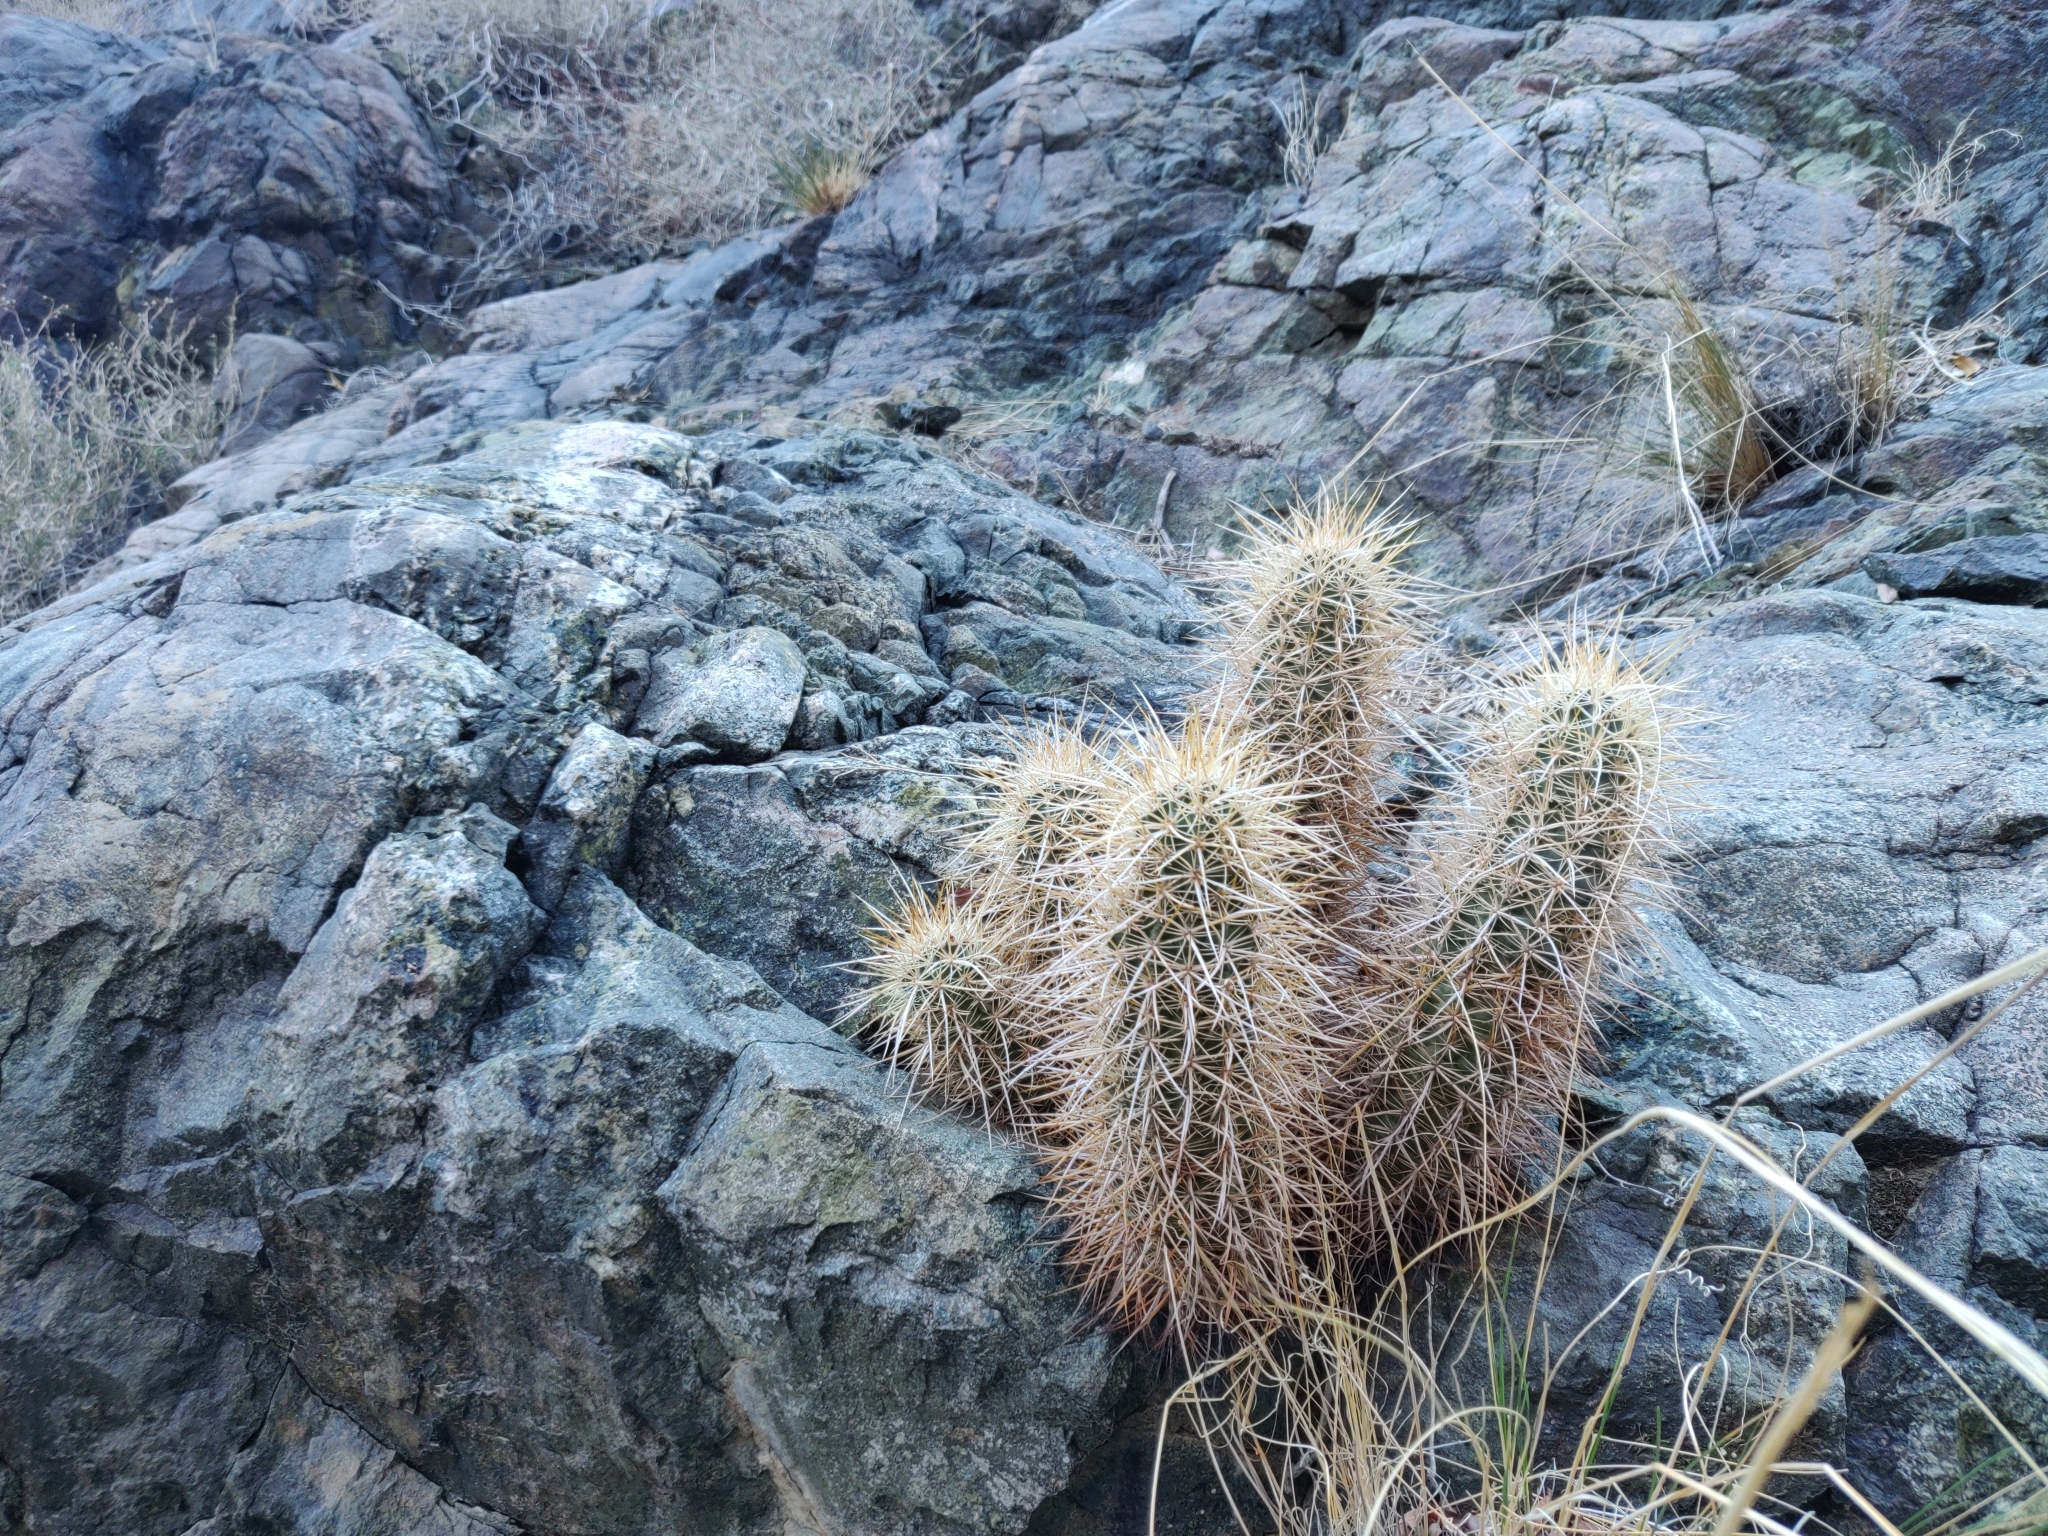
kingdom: Plantae
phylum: Tracheophyta
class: Magnoliopsida
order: Caryophyllales
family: Cactaceae
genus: Echinocereus
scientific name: Echinocereus engelmannii
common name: Engelmann's hedgehog cactus
